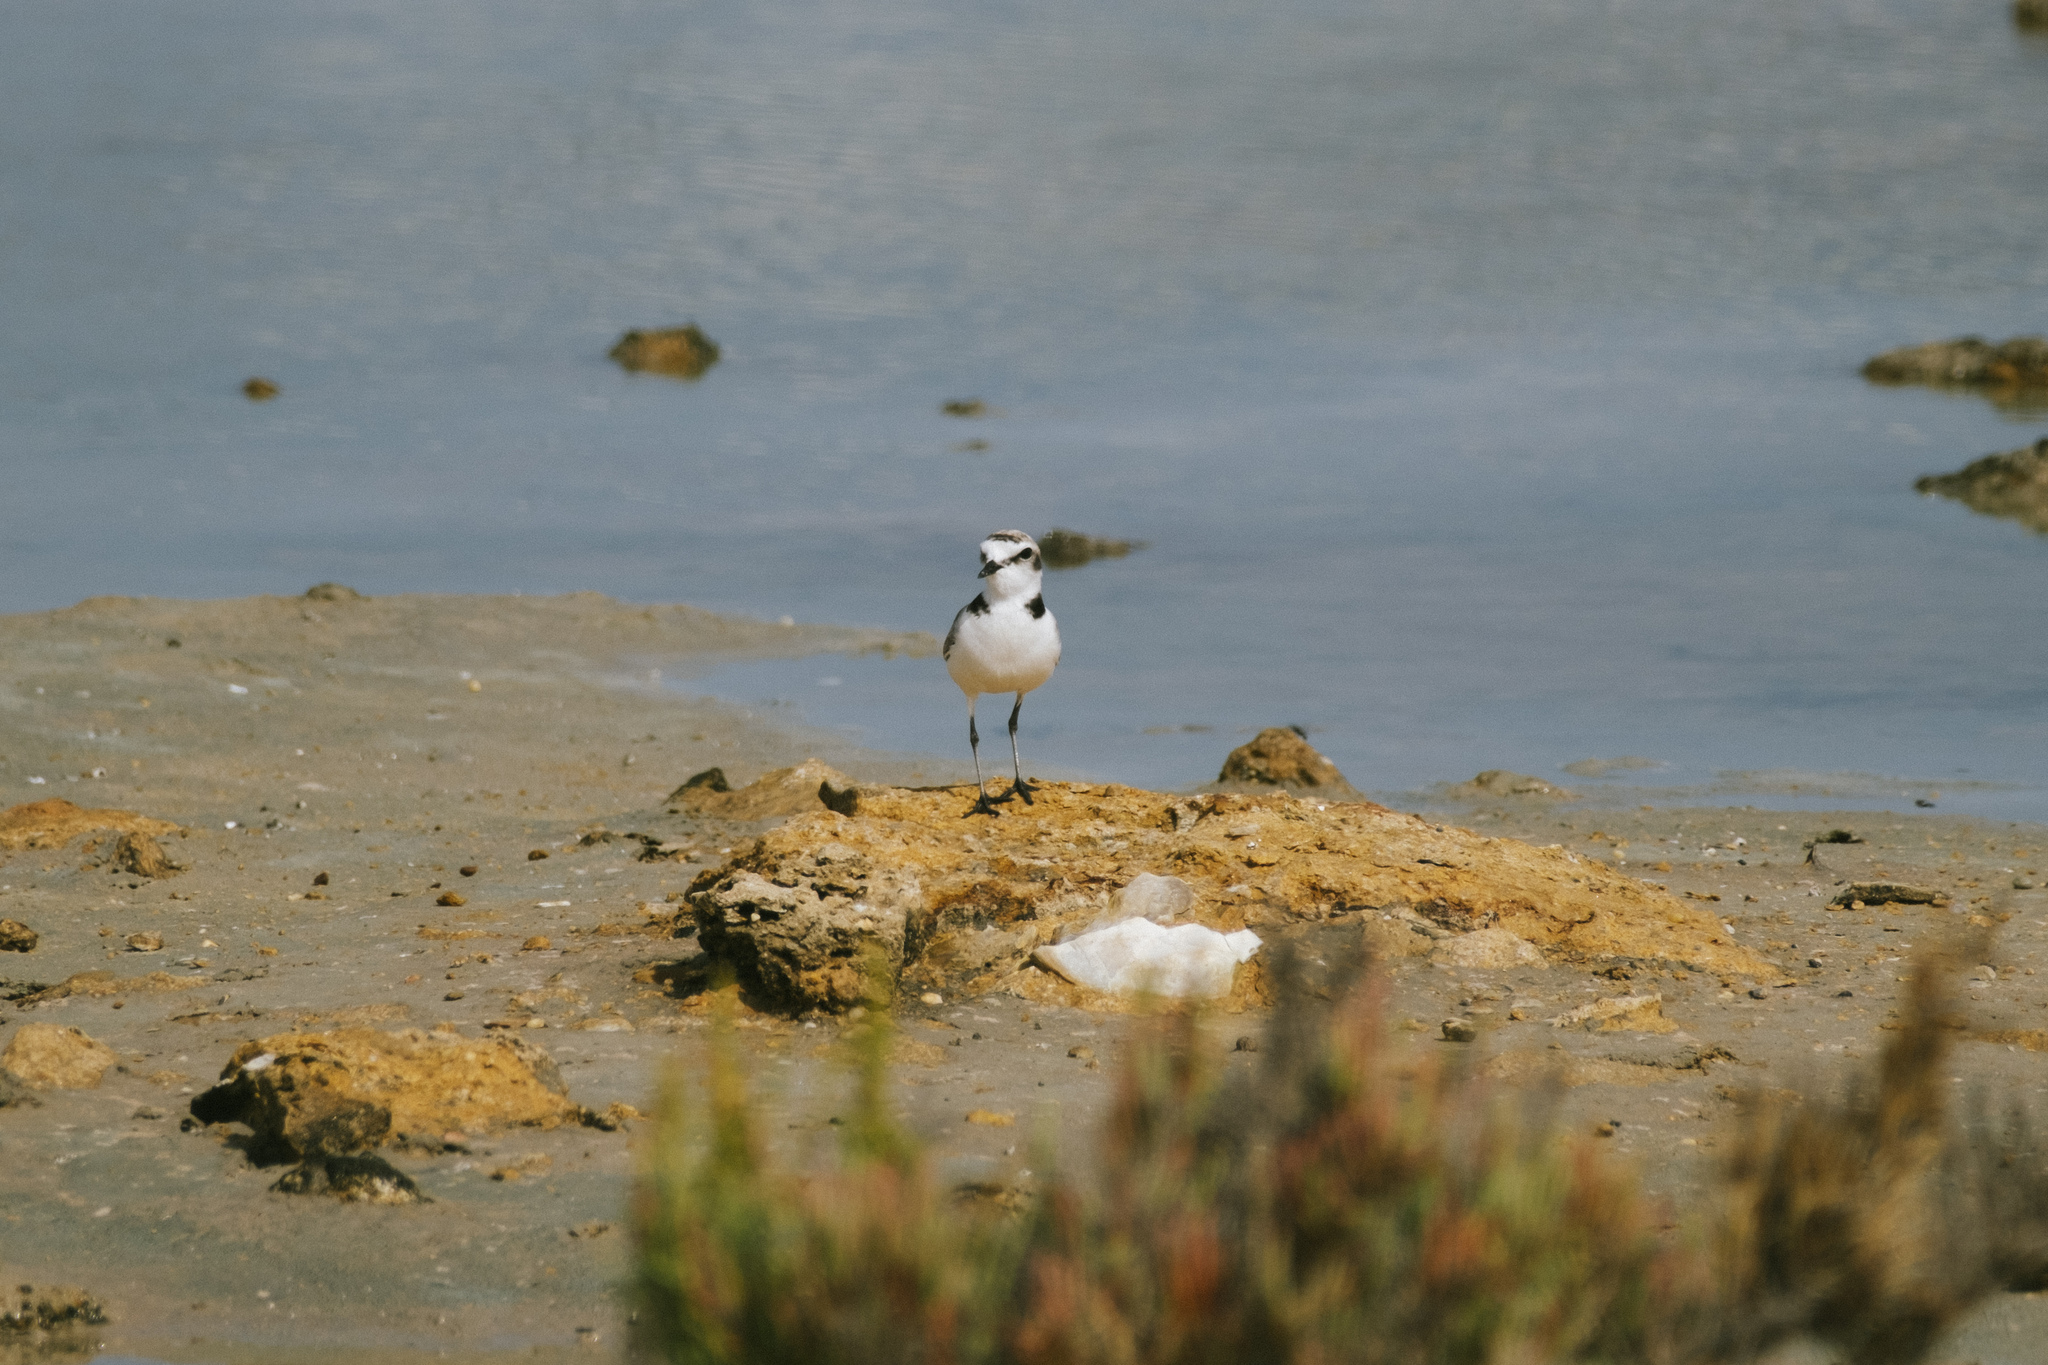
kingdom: Animalia
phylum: Chordata
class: Aves
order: Charadriiformes
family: Charadriidae
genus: Charadrius
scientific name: Charadrius alexandrinus
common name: Kentish plover
